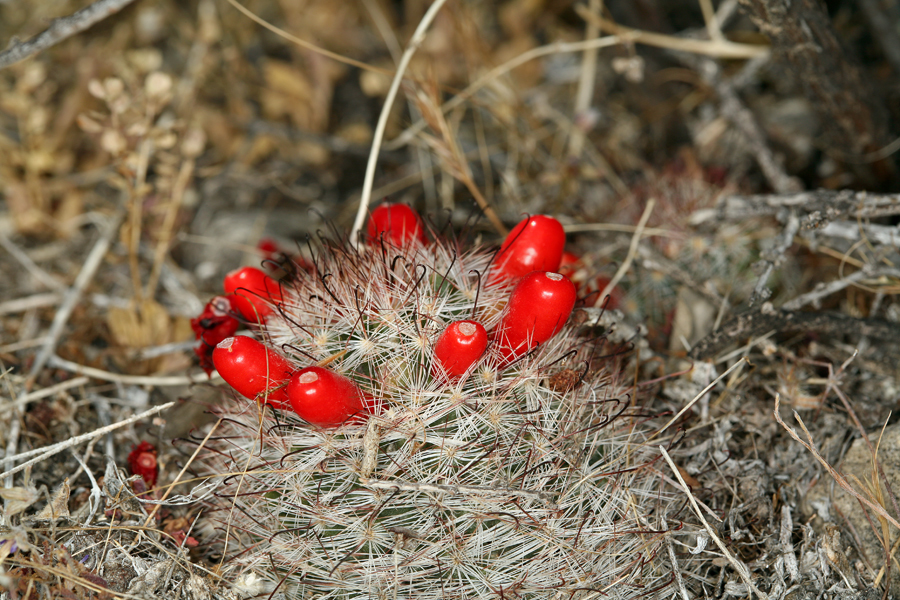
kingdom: Plantae
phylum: Tracheophyta
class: Magnoliopsida
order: Caryophyllales
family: Cactaceae
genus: Cochemiea
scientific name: Cochemiea tetrancistra
